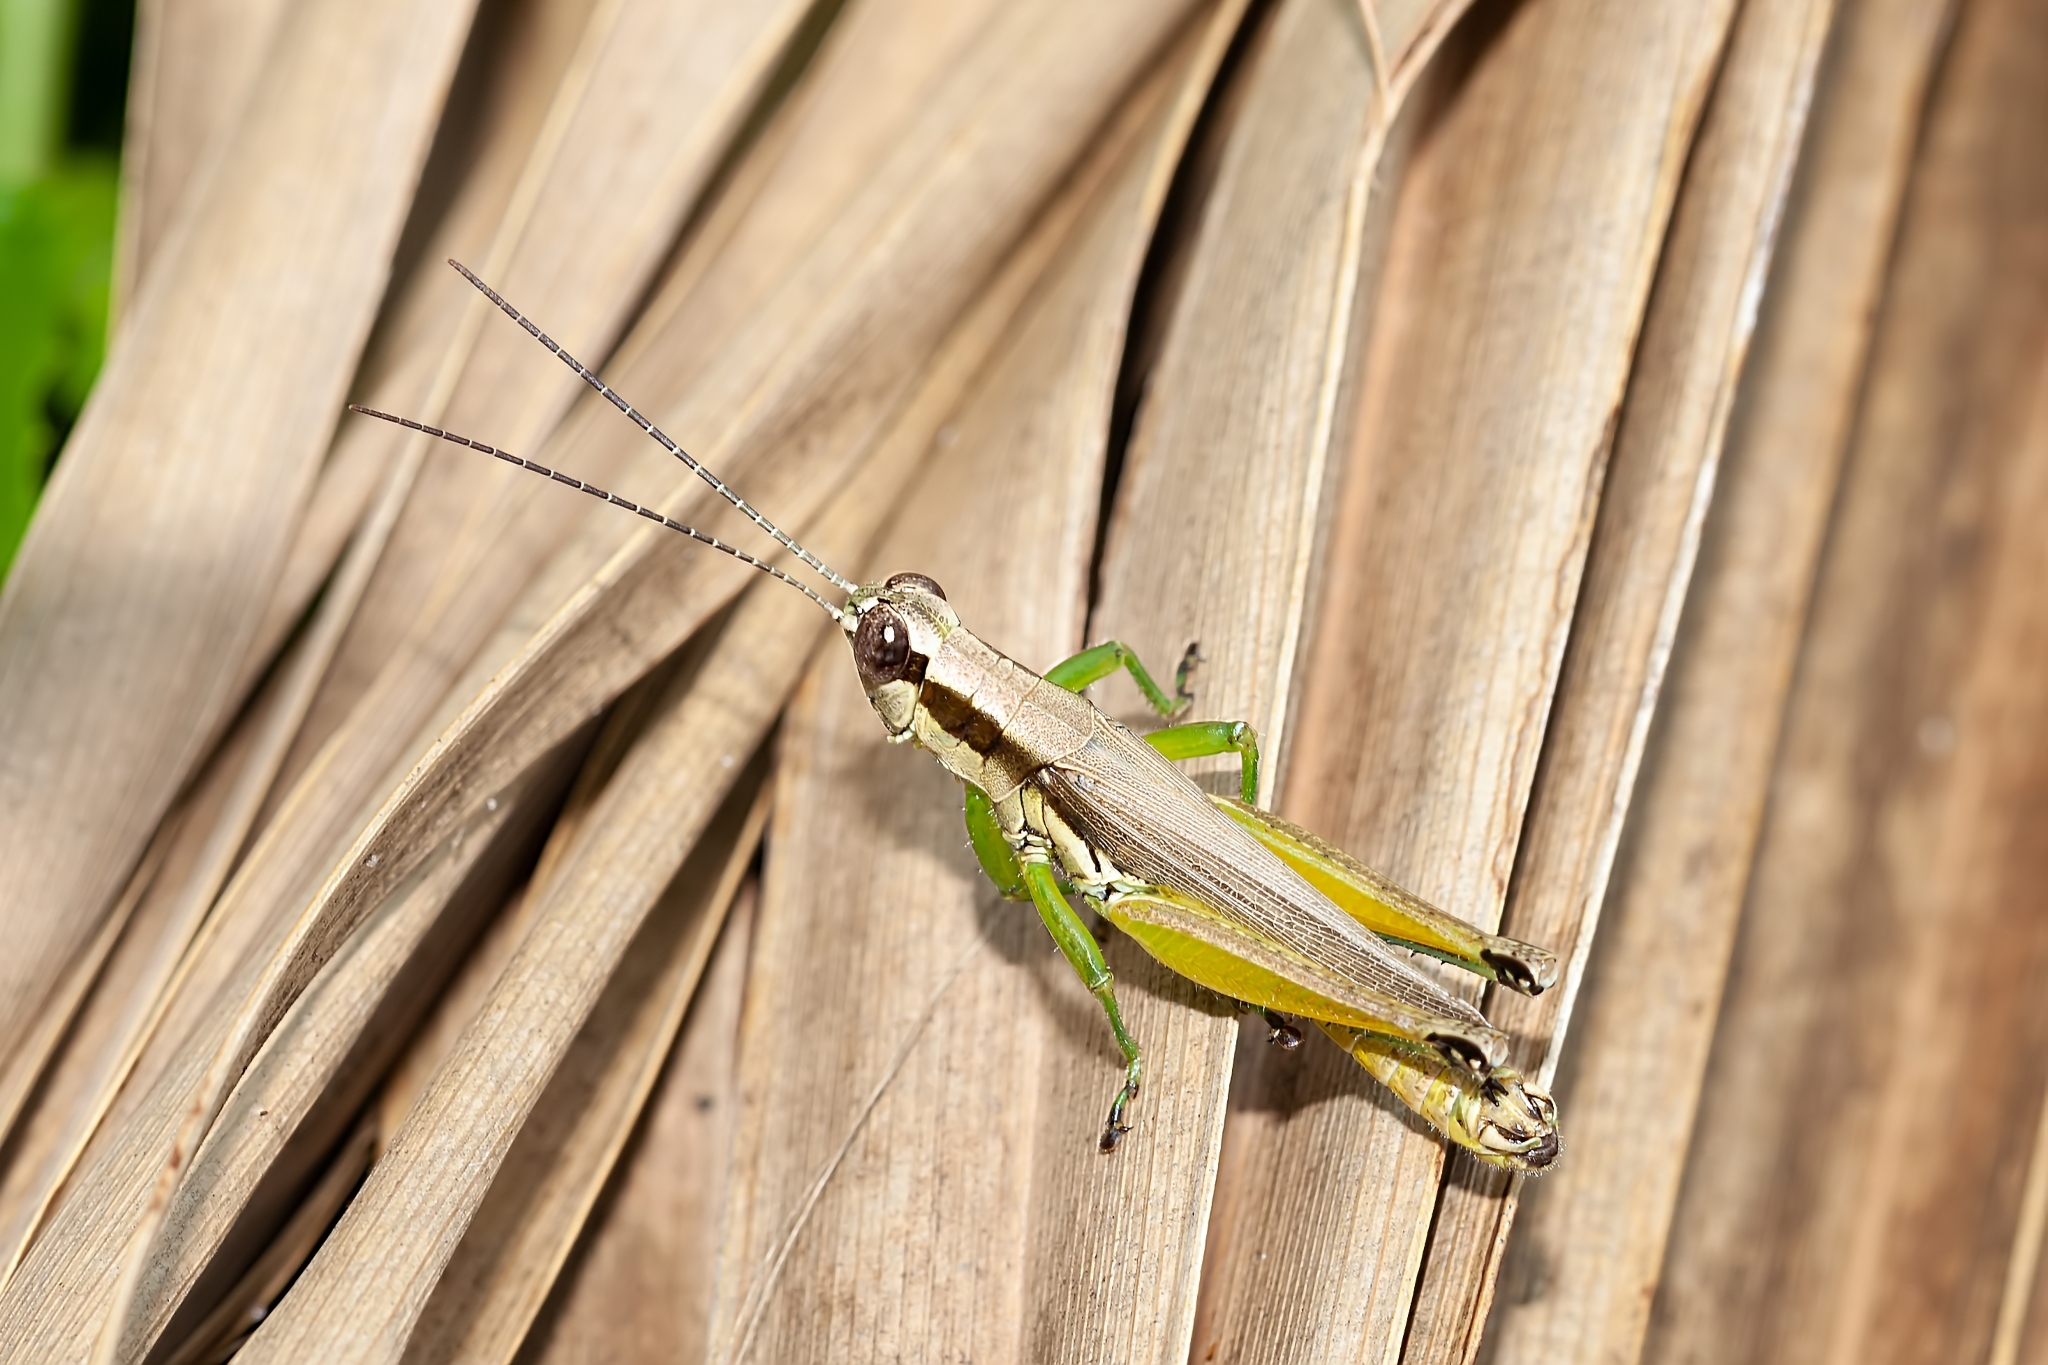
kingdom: Animalia
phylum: Arthropoda
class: Insecta
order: Orthoptera
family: Acrididae
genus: Paroxya
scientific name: Paroxya clavuligera
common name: Olive-green swamp grasshopper
